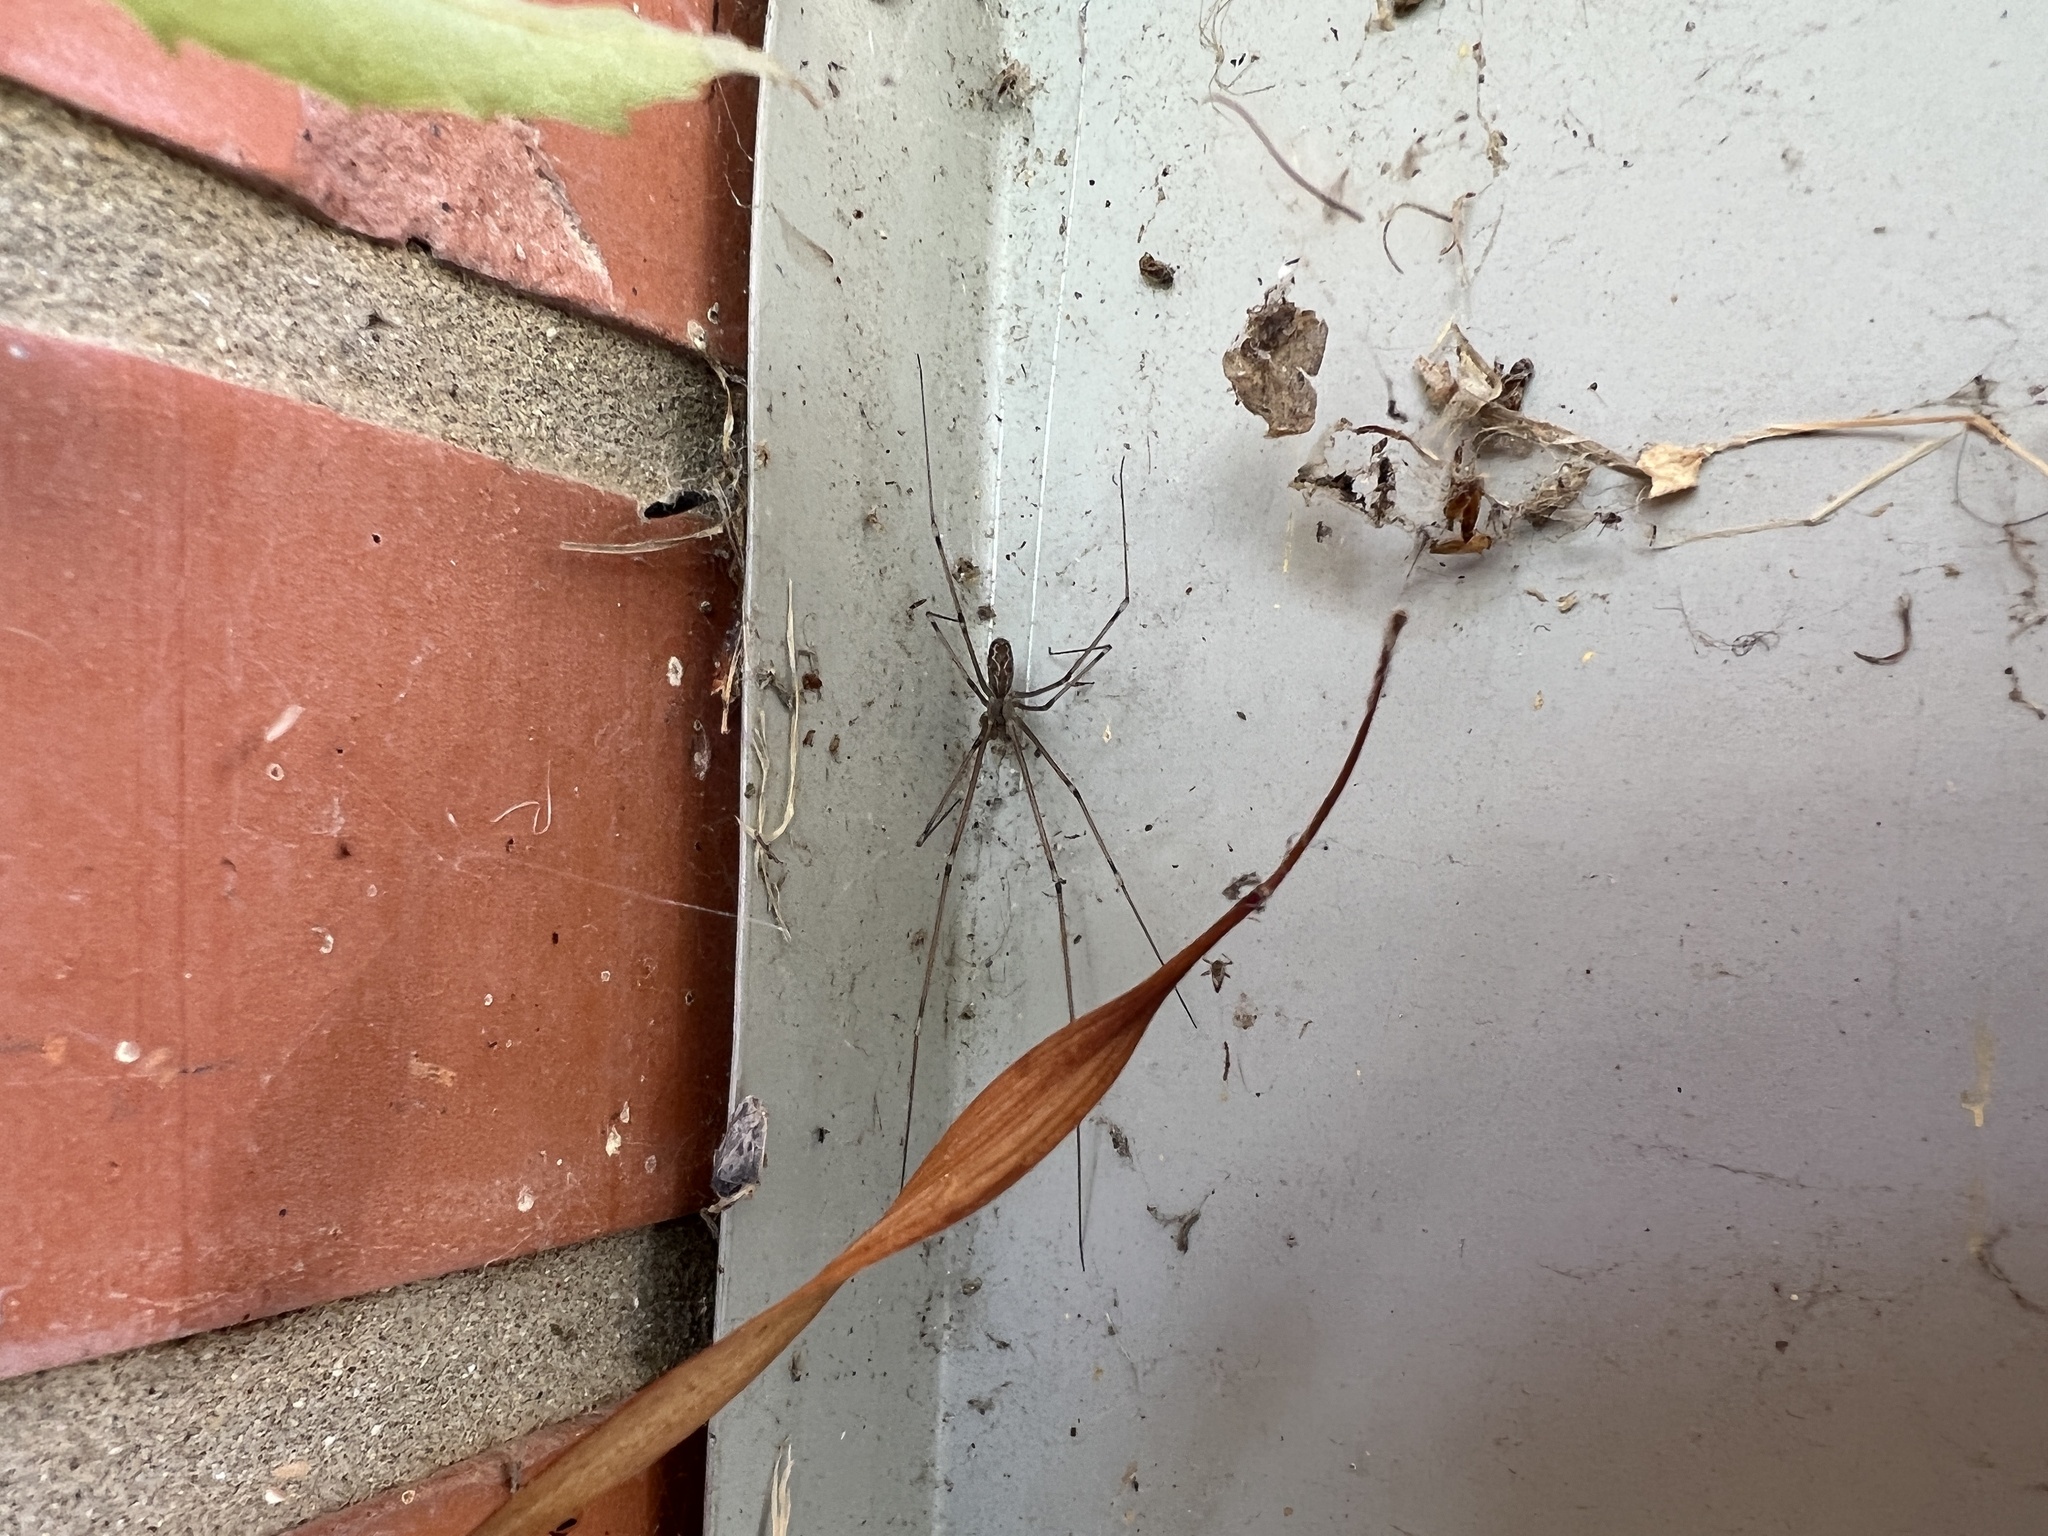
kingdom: Animalia
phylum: Arthropoda
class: Arachnida
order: Araneae
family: Pholcidae
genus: Holocnemus
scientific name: Holocnemus pluchei
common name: Marbled cellar spider
